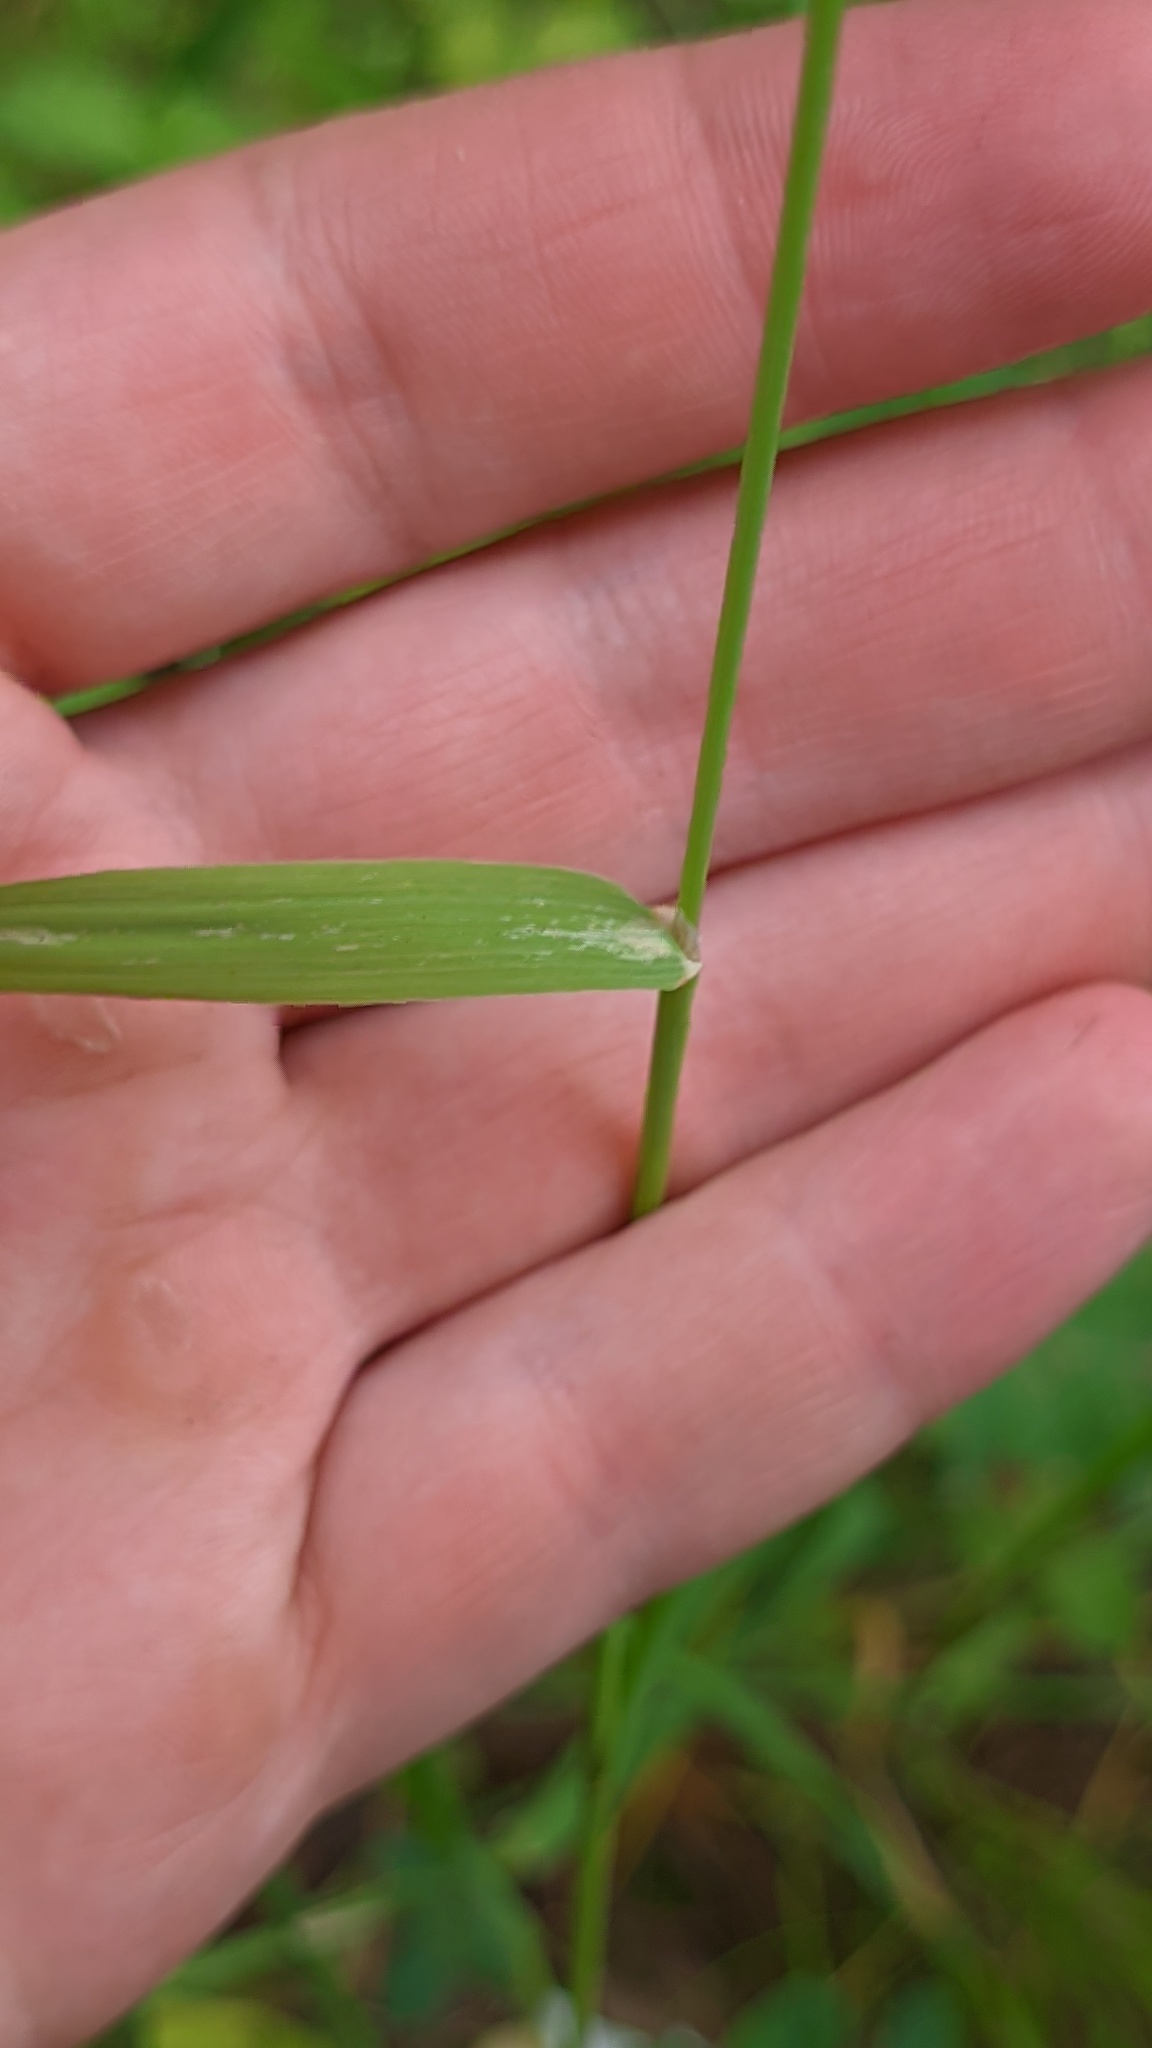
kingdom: Plantae
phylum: Tracheophyta
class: Liliopsida
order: Poales
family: Poaceae
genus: Phleum
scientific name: Phleum pratense
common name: Timothy grass
